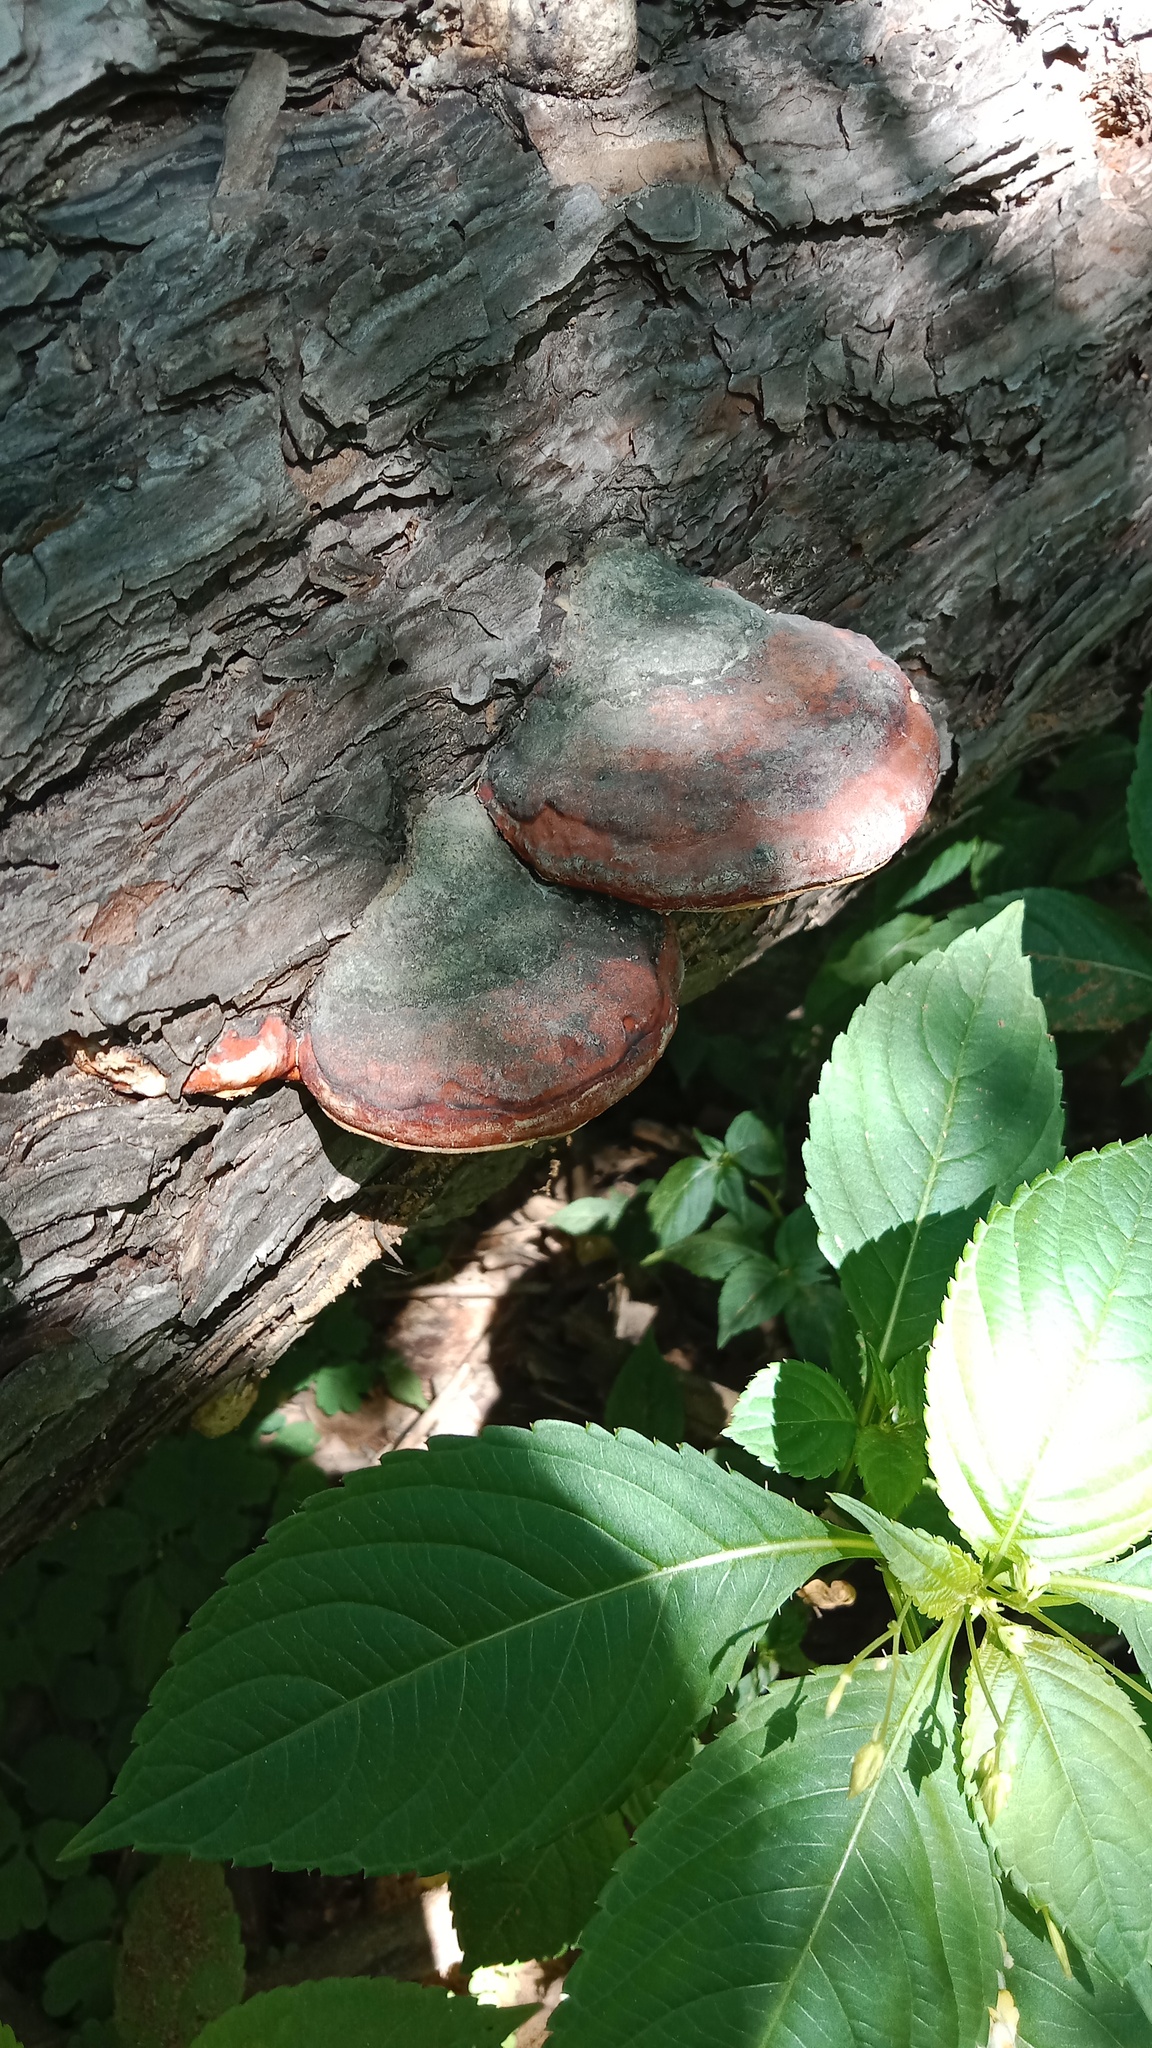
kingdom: Plantae
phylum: Tracheophyta
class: Magnoliopsida
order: Ericales
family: Balsaminaceae
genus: Impatiens
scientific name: Impatiens parviflora
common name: Small balsam
